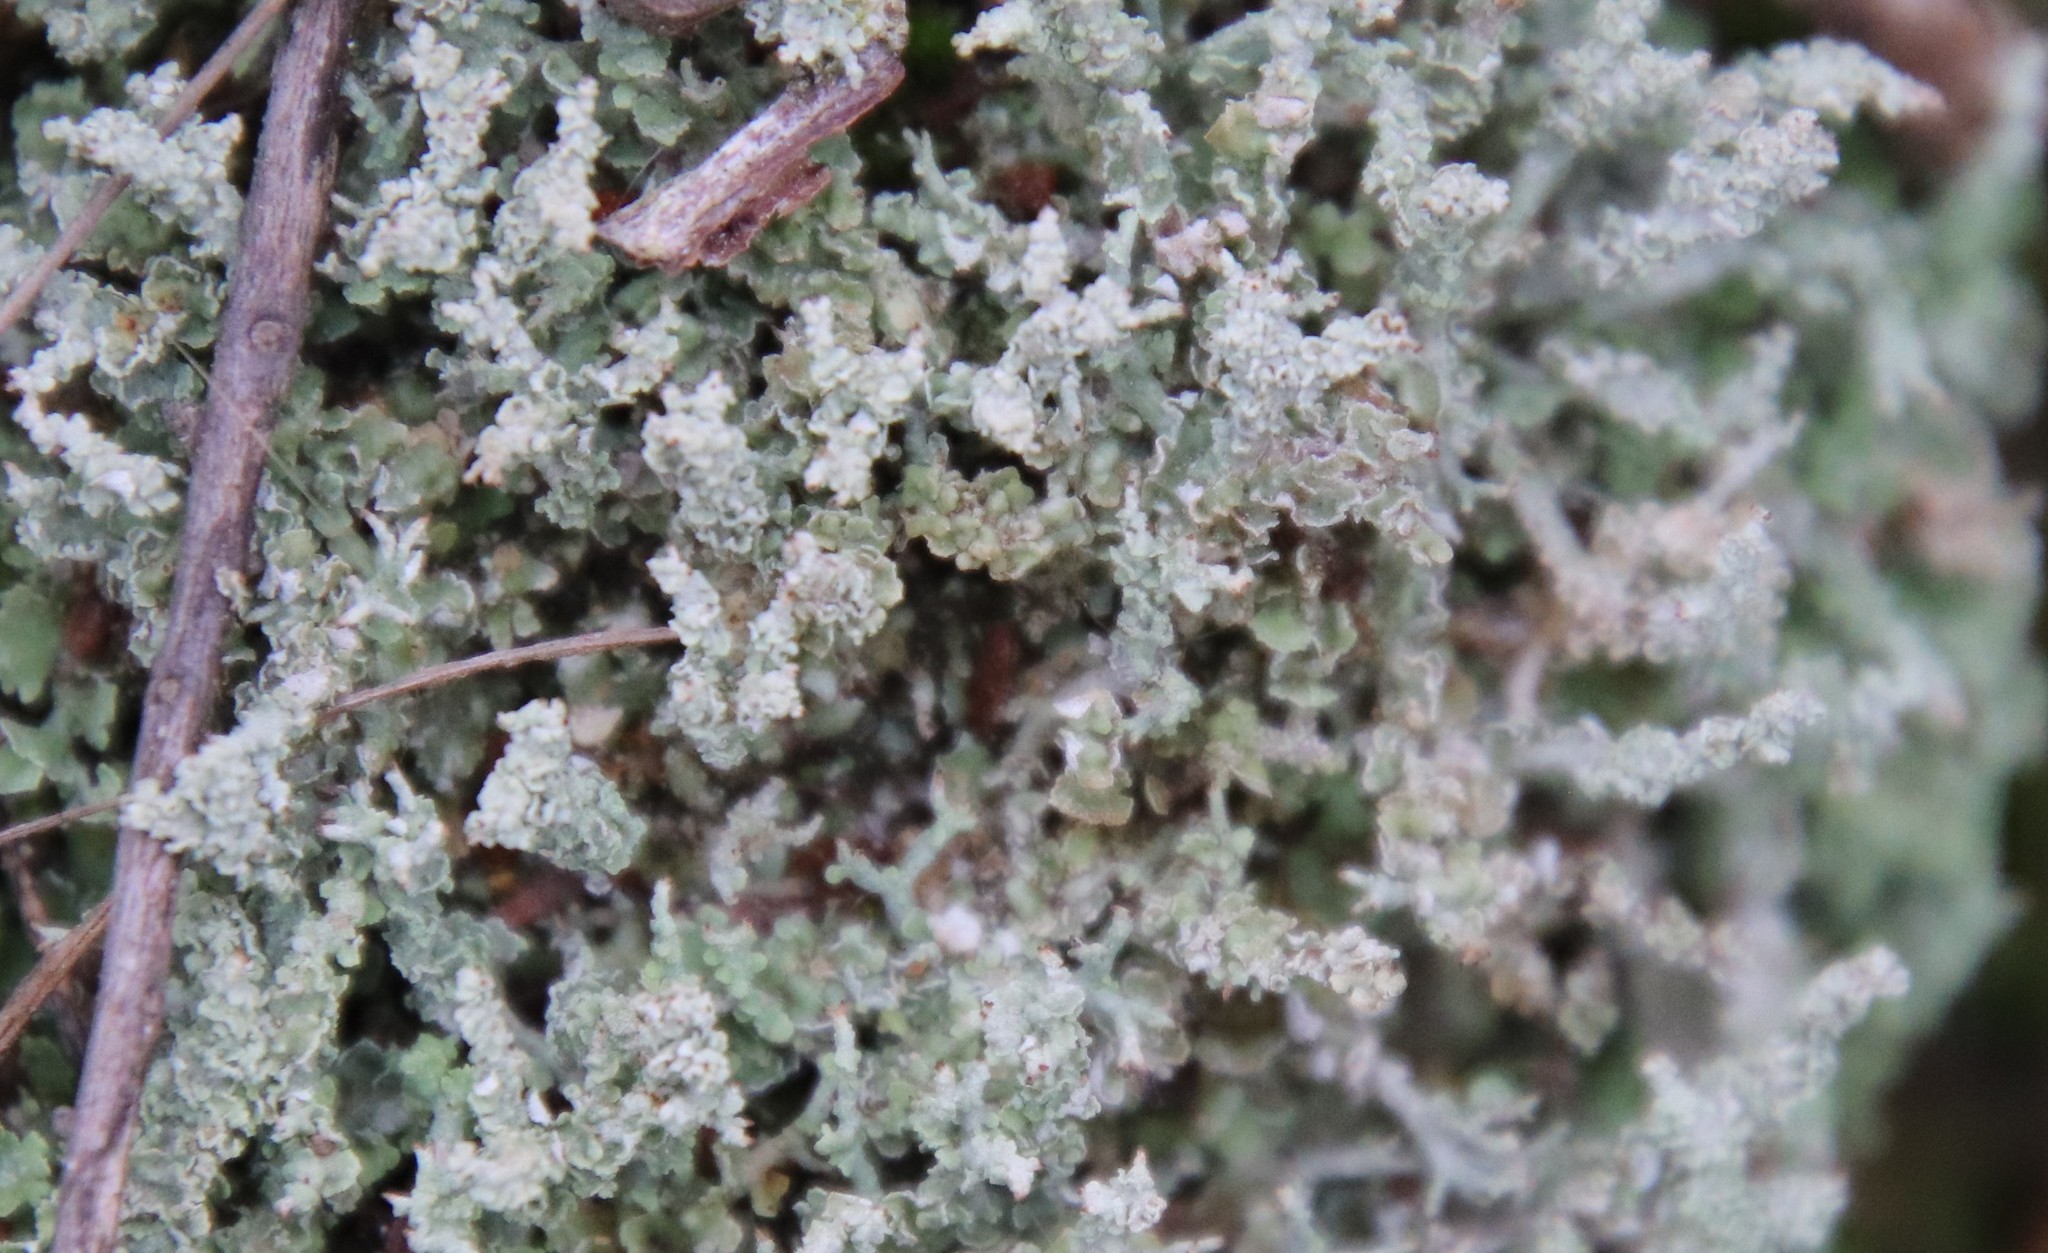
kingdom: Fungi
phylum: Ascomycota
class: Lecanoromycetes
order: Lecanorales
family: Cladoniaceae
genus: Cladonia
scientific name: Cladonia scabriuscula
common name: Mealy forked clad lichen
